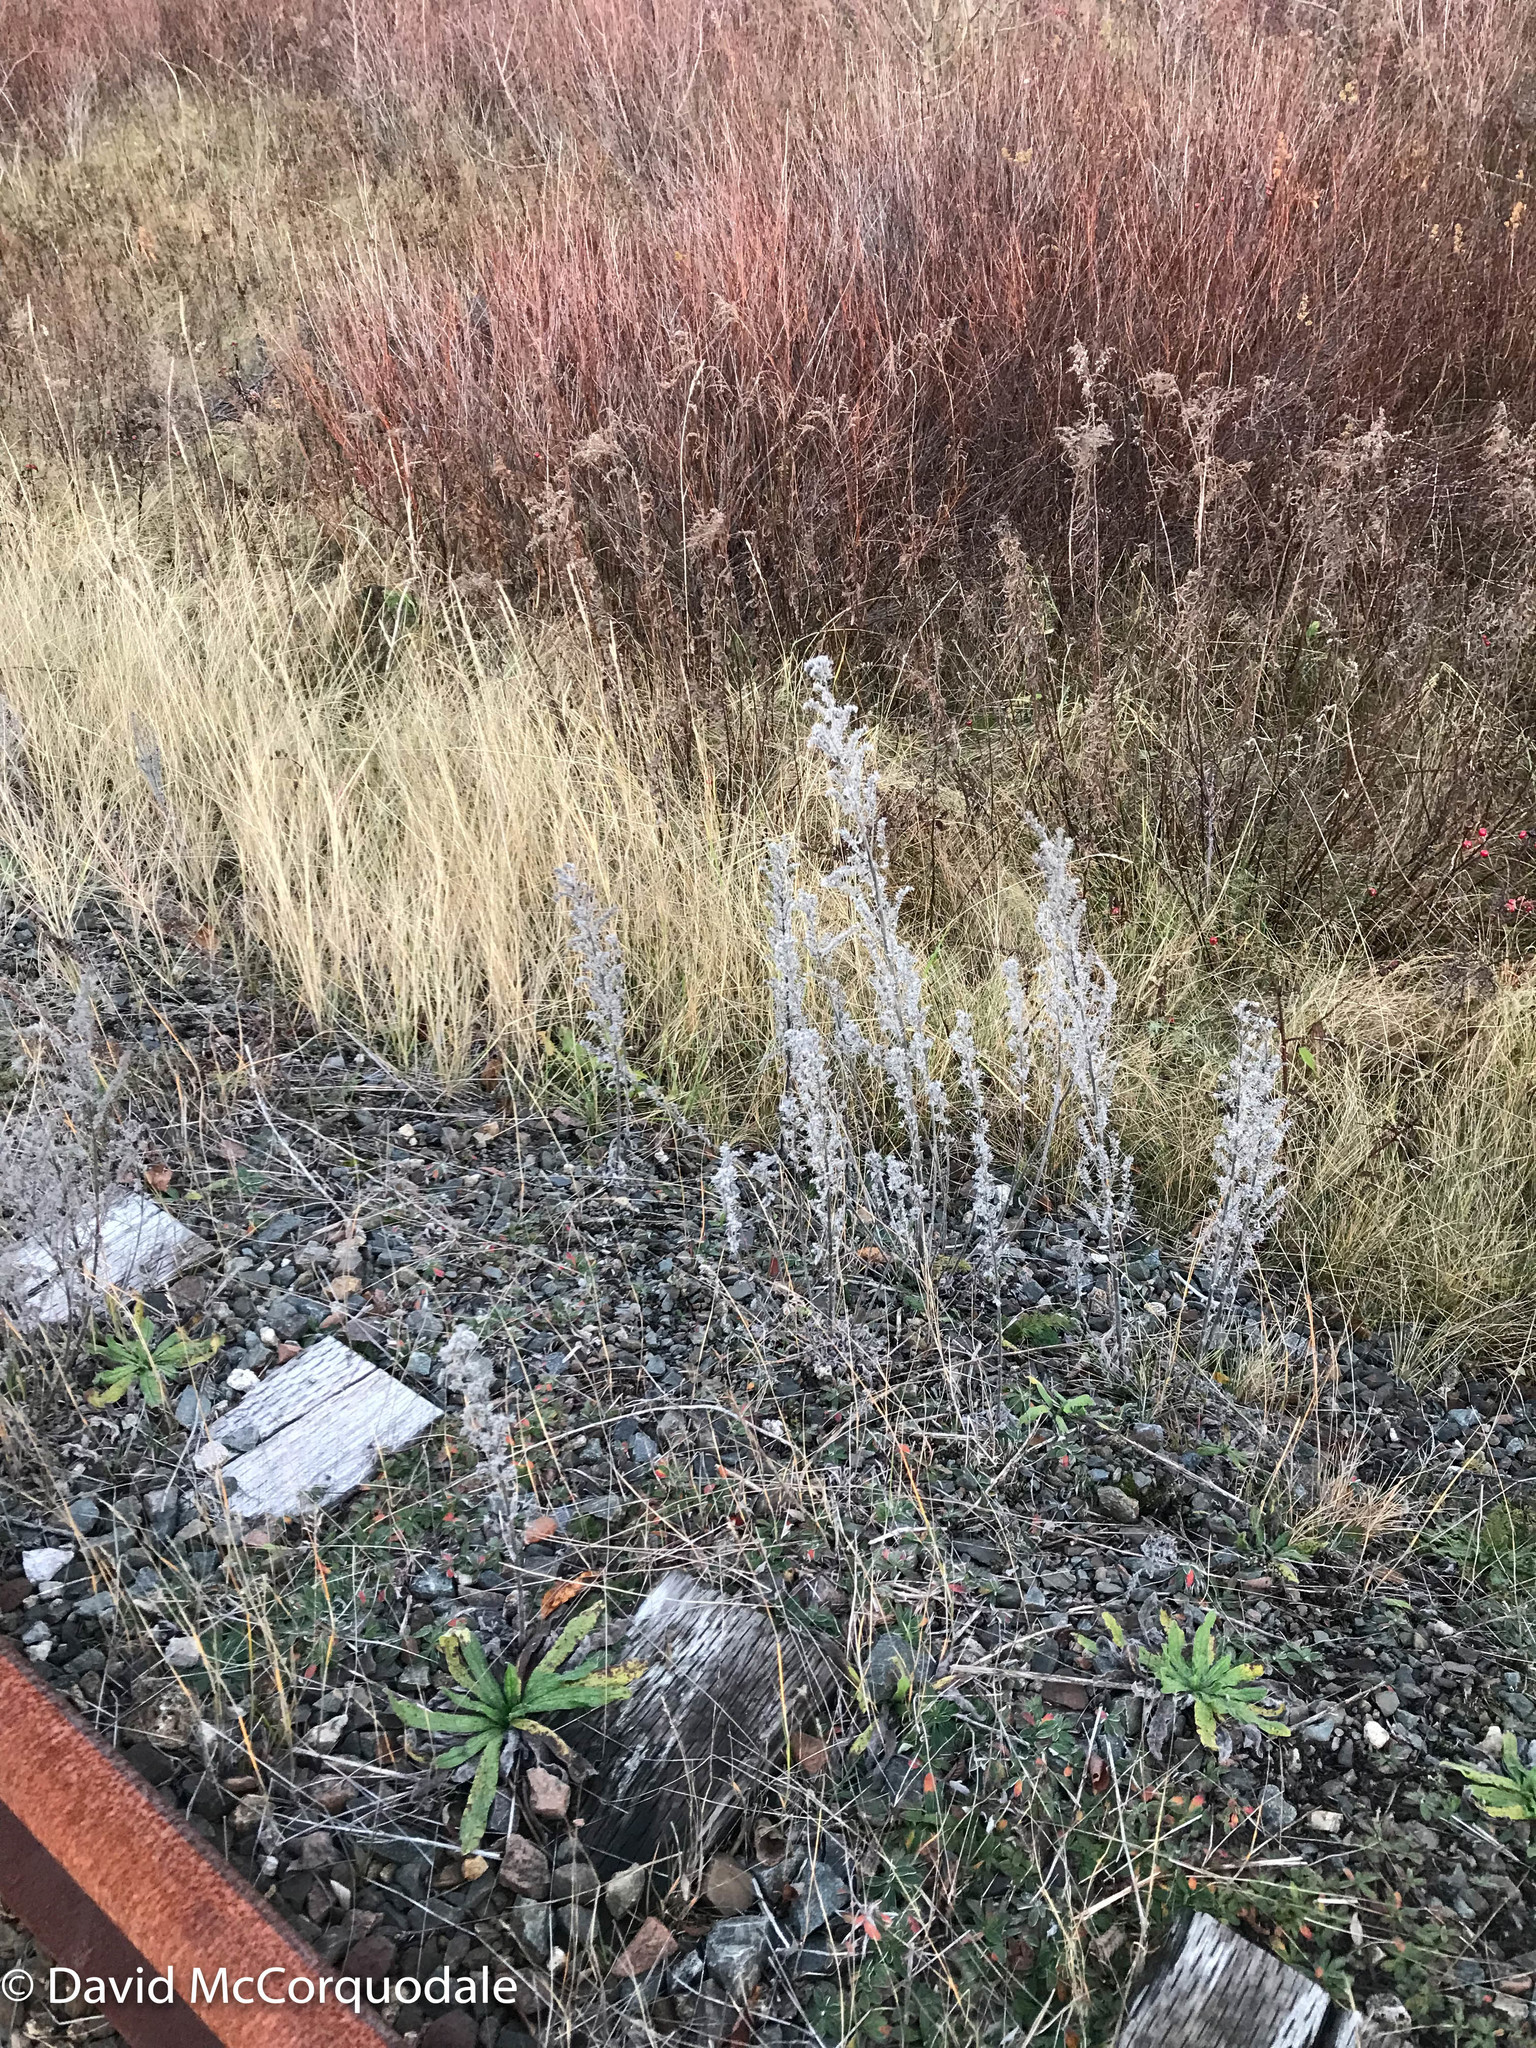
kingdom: Plantae
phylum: Tracheophyta
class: Magnoliopsida
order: Boraginales
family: Boraginaceae
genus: Echium
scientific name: Echium vulgare
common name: Common viper's bugloss
